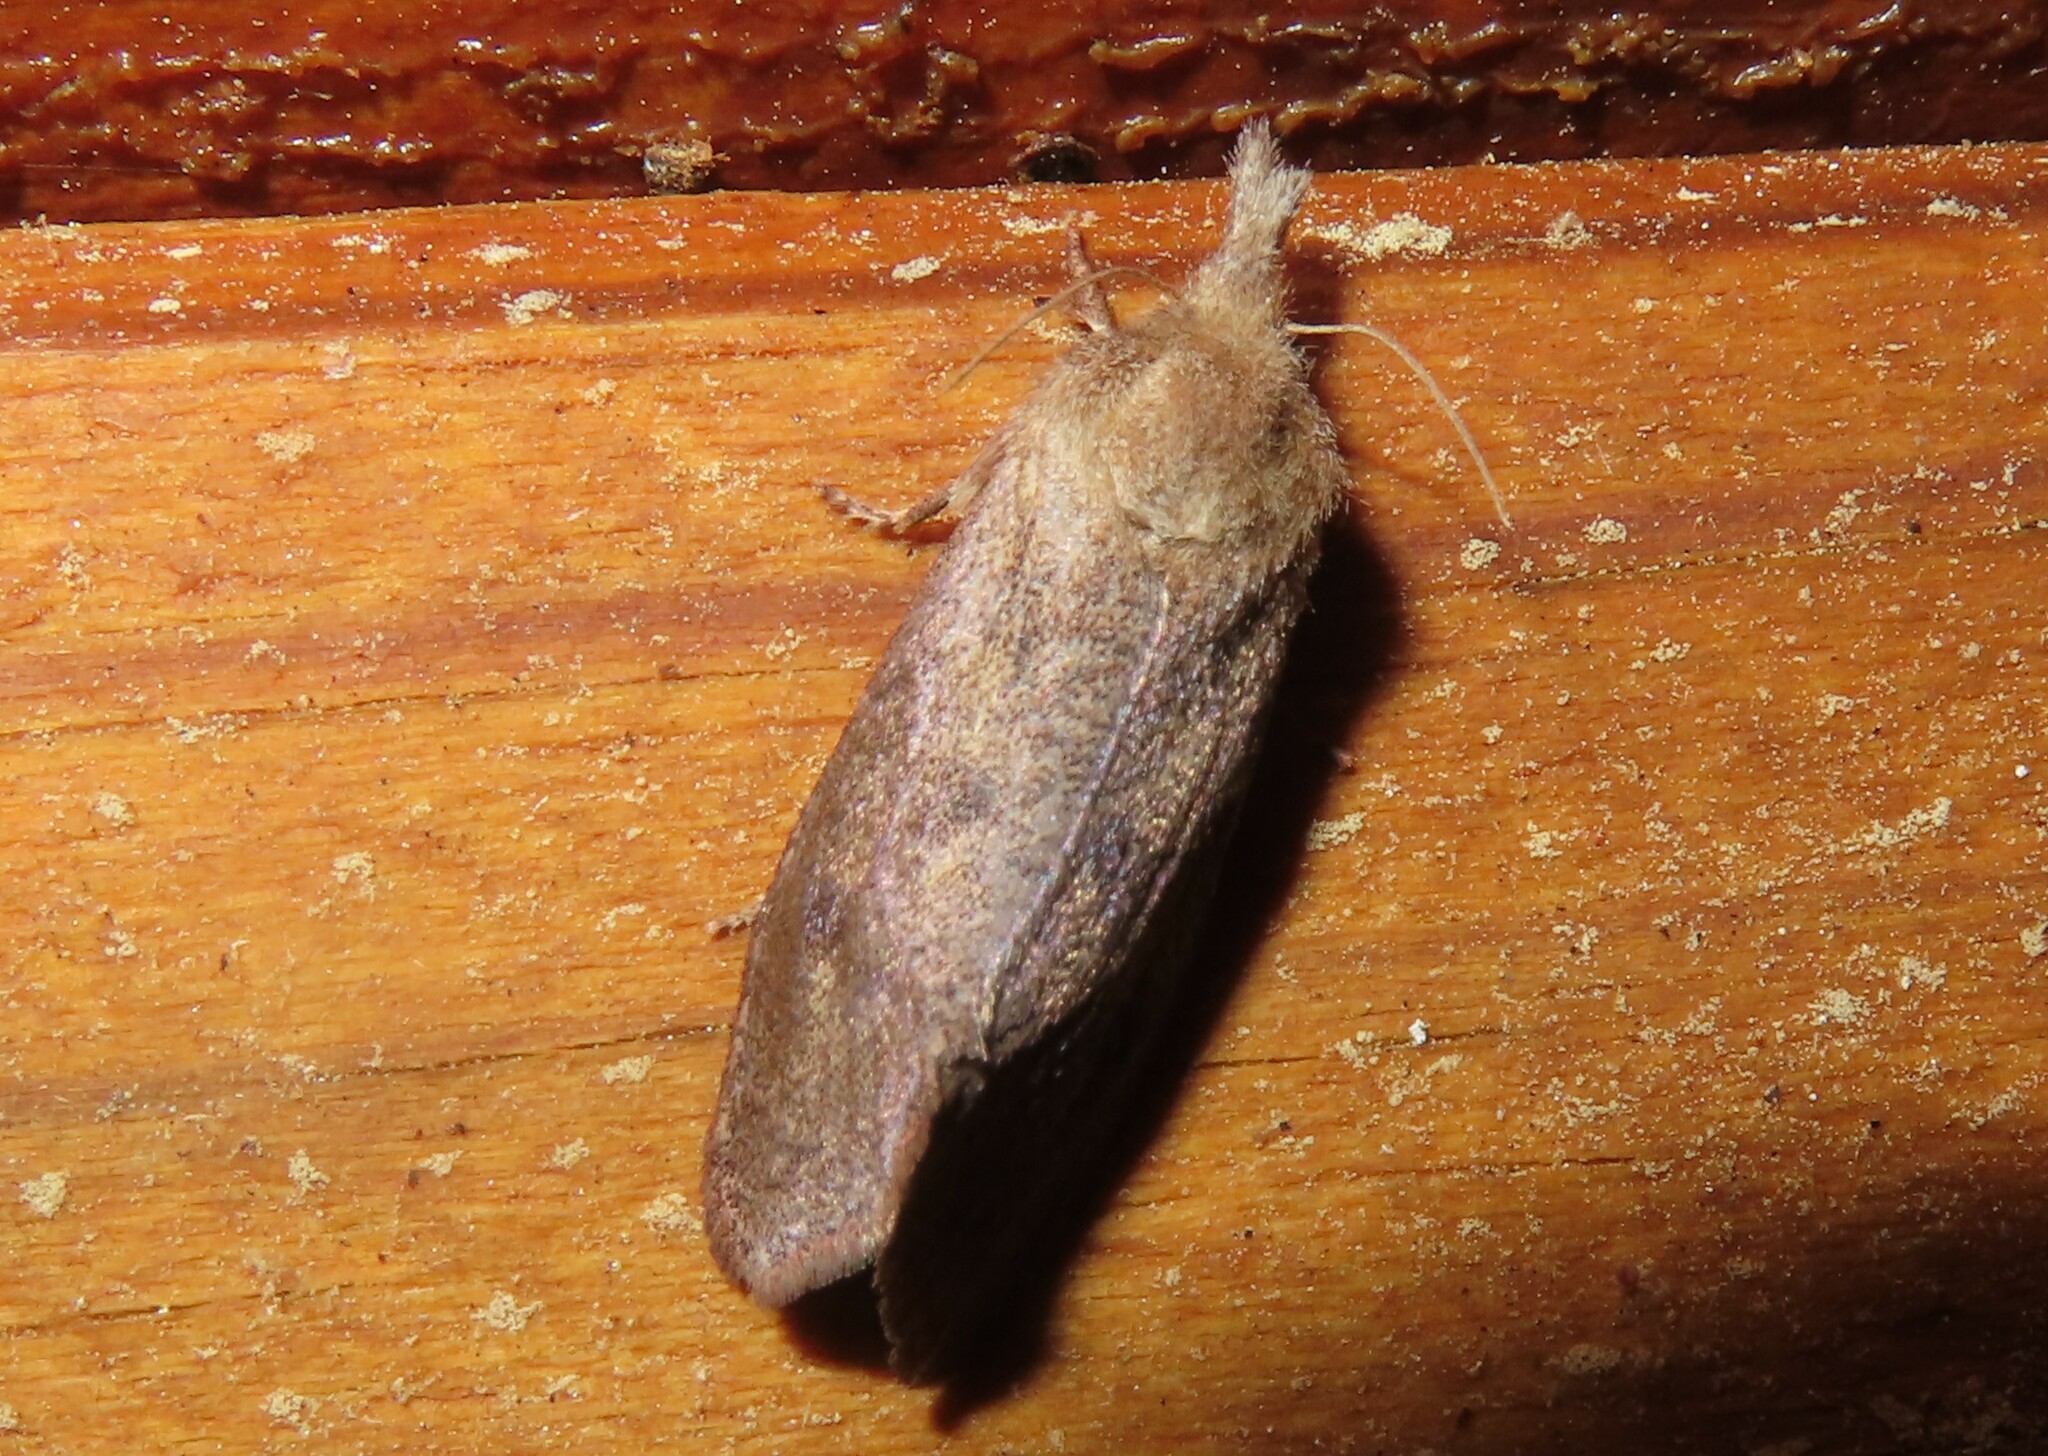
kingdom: Animalia
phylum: Arthropoda
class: Insecta
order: Lepidoptera
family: Tineidae
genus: Acrolophus
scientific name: Acrolophus plumifrontella
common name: Eastern grass tubeworm moth
